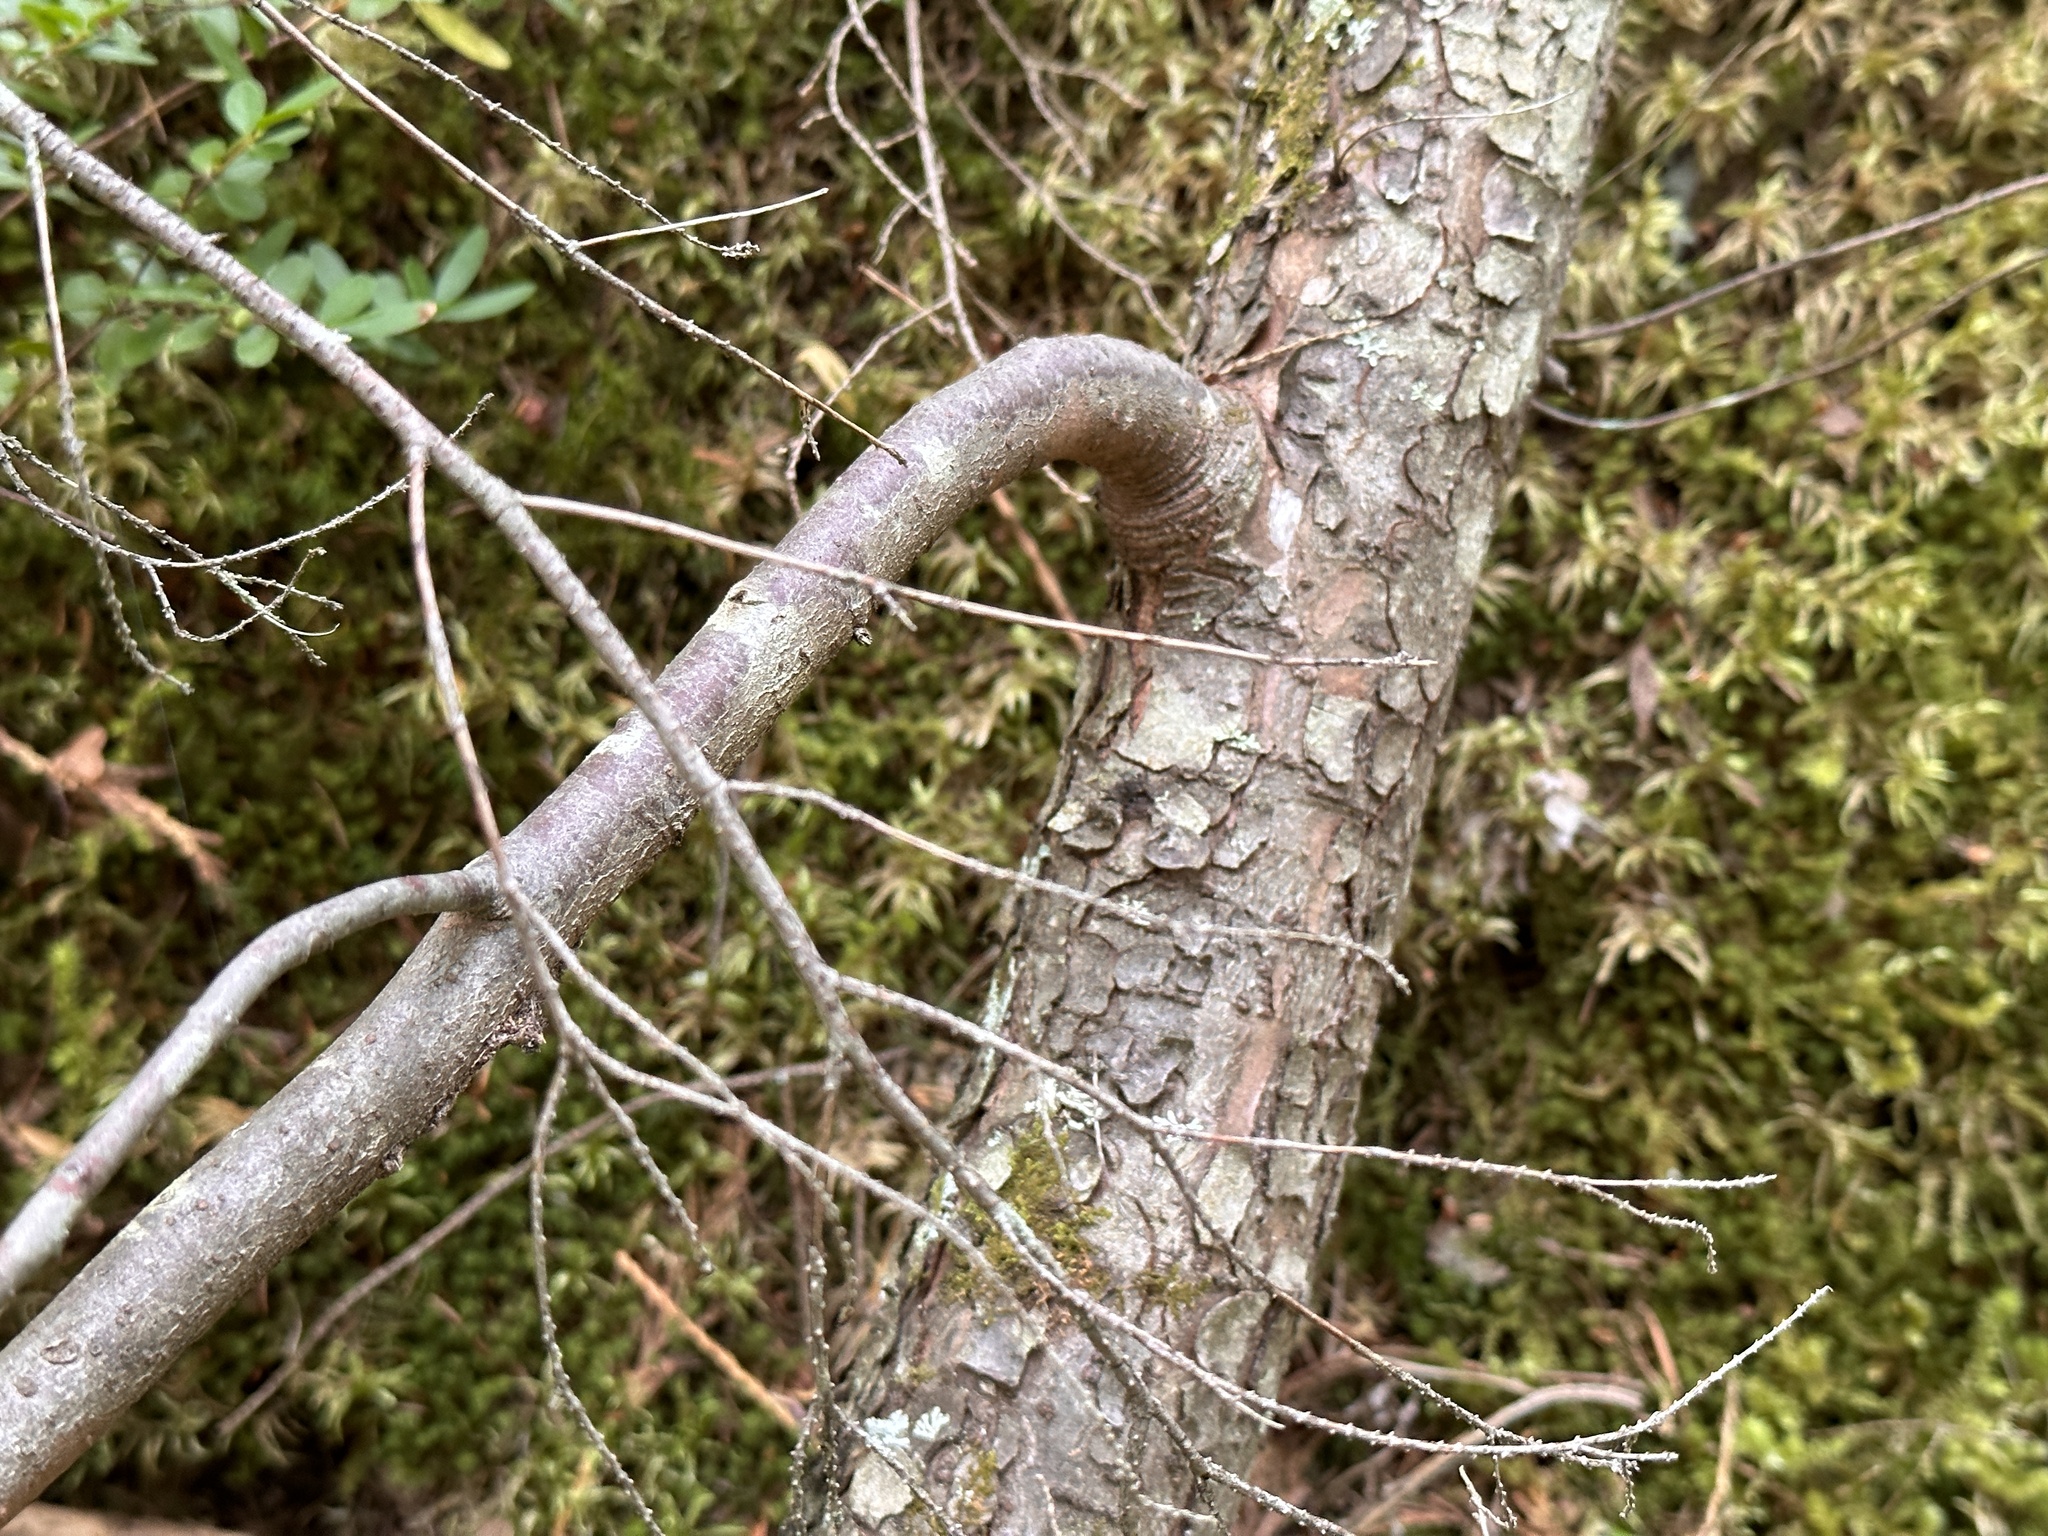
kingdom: Plantae
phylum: Tracheophyta
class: Pinopsida
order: Pinales
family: Pinaceae
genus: Tsuga
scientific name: Tsuga heterophylla
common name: Western hemlock
